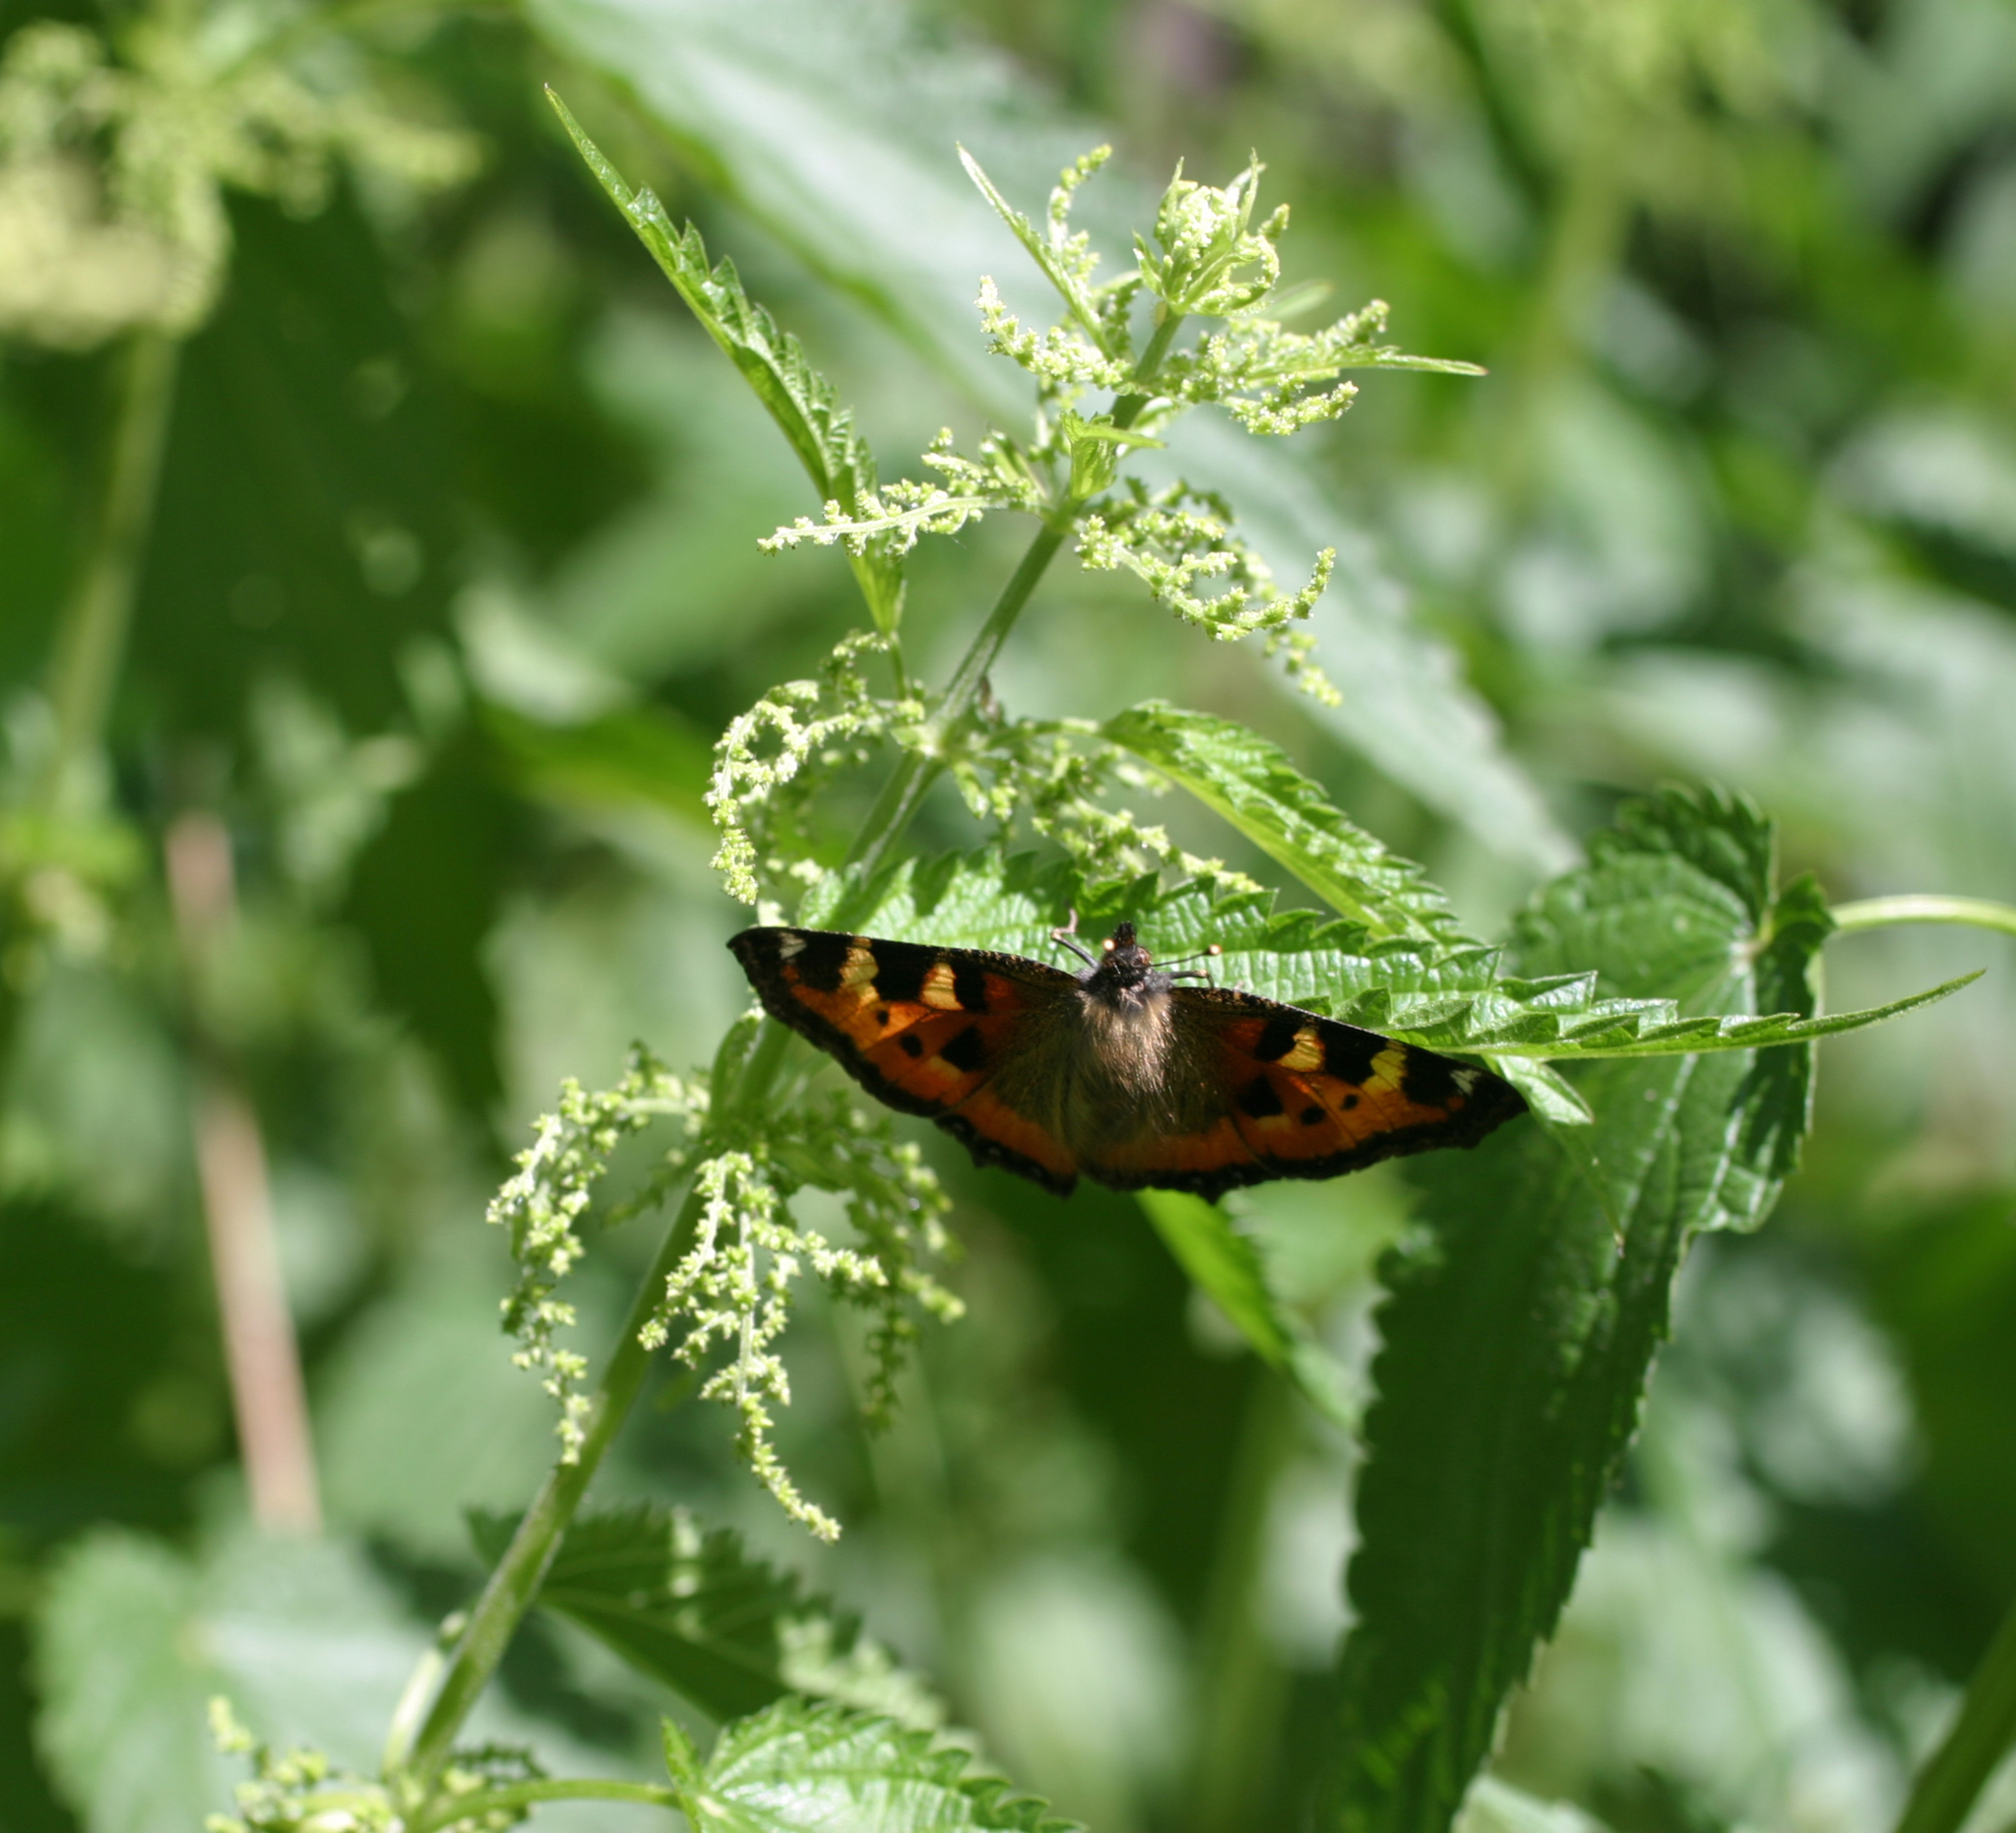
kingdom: Animalia
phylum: Arthropoda
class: Insecta
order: Lepidoptera
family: Nymphalidae
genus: Aglais
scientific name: Aglais urticae
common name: Small tortoiseshell
